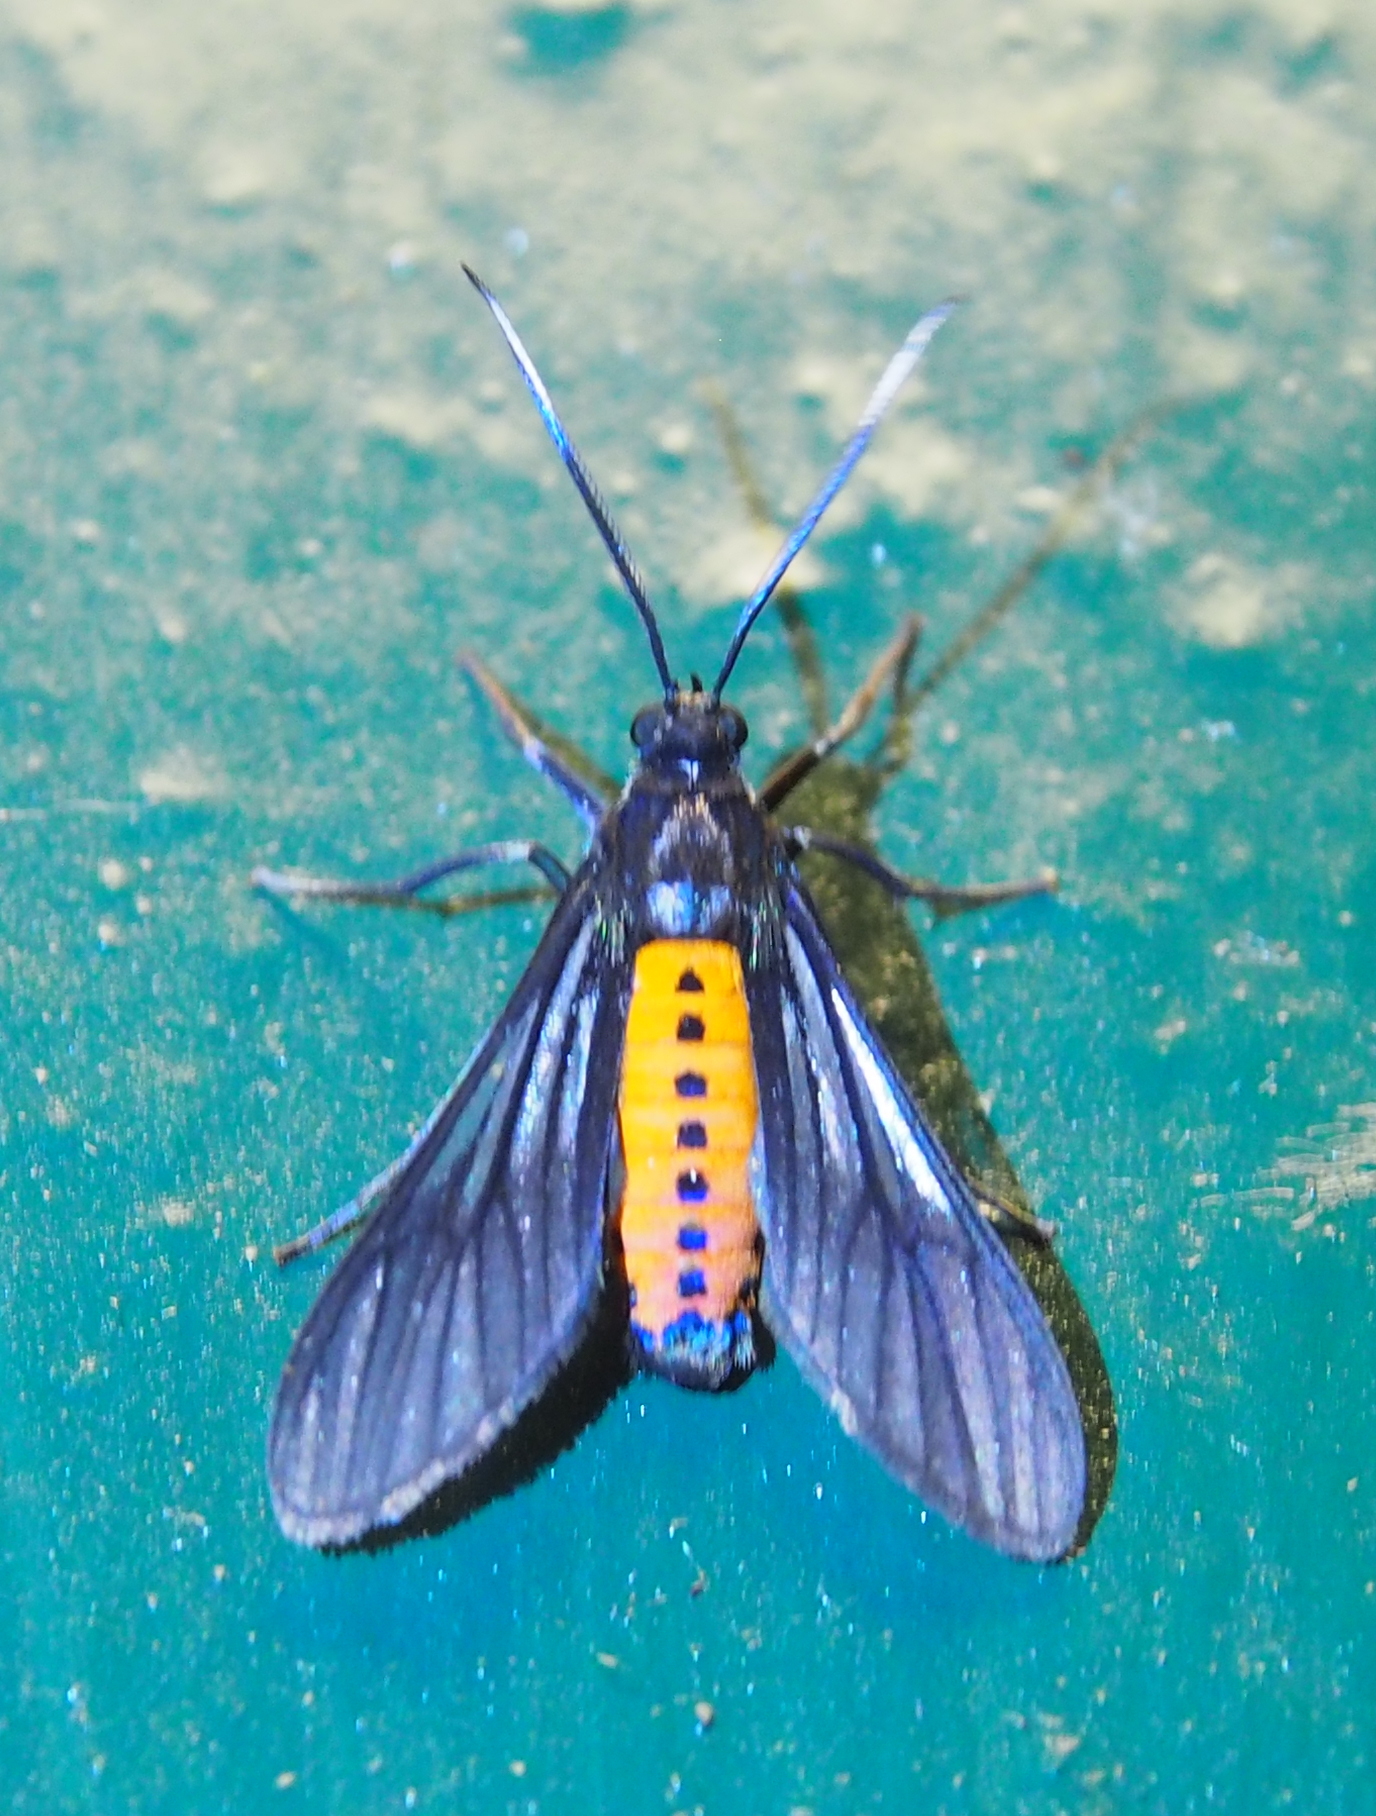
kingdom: Animalia
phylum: Arthropoda
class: Insecta
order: Lepidoptera
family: Erebidae
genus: Rhynchopyga
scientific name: Rhynchopyga subflamma
